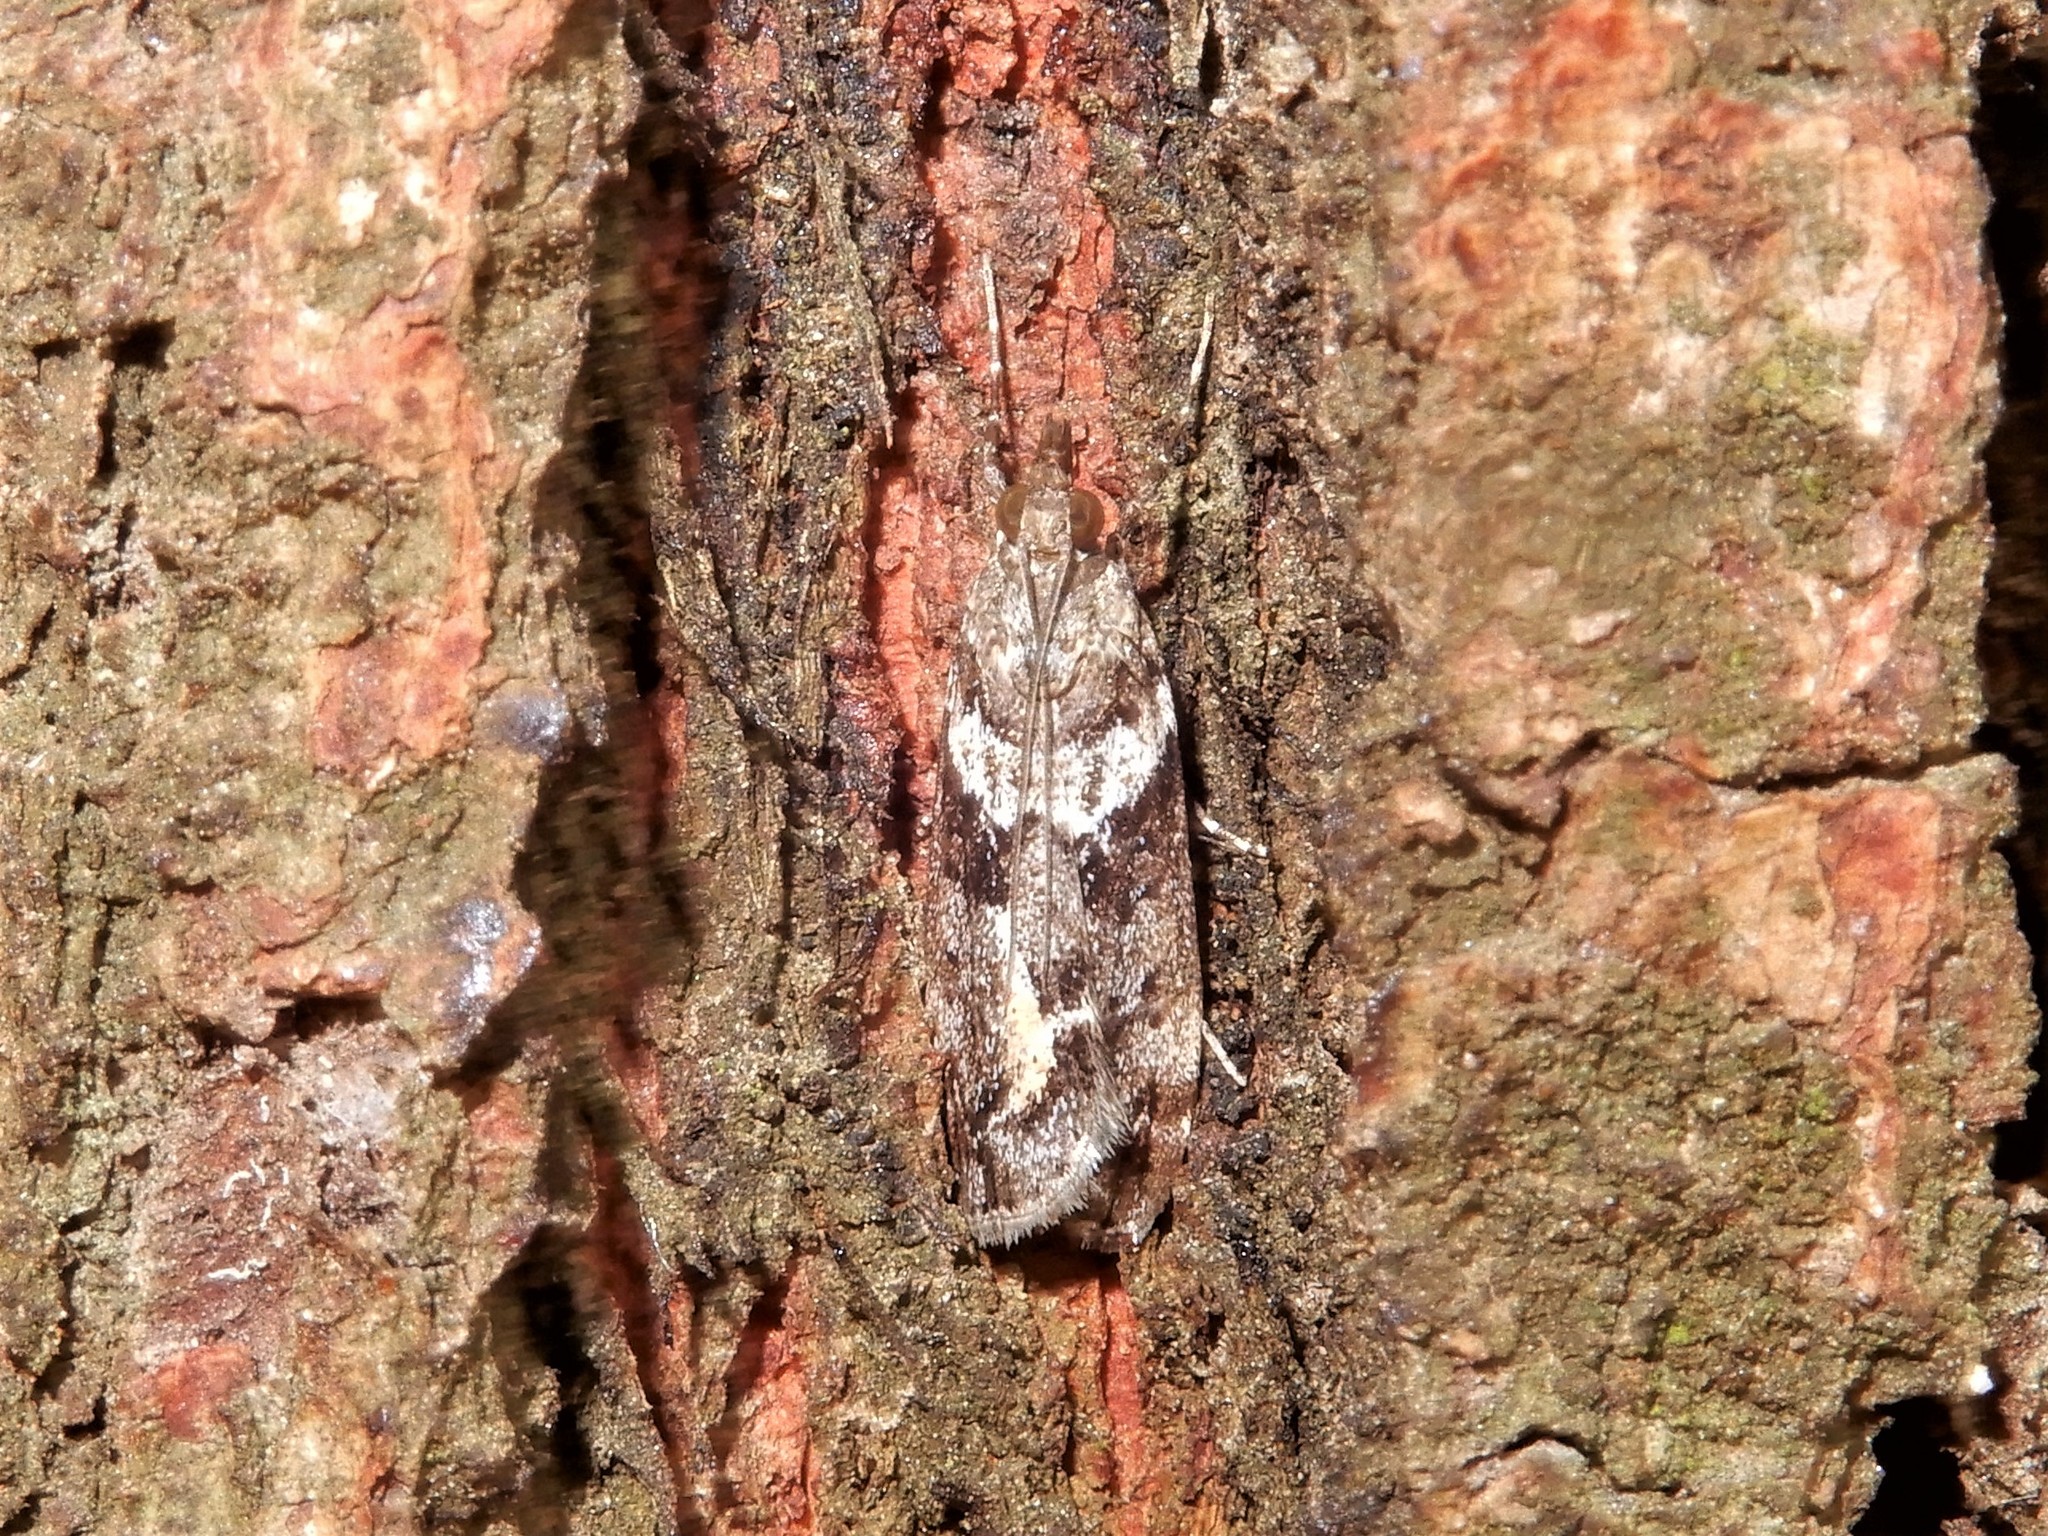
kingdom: Animalia
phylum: Arthropoda
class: Insecta
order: Lepidoptera
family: Crambidae
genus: Eudonia
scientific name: Eudonia submarginalis
